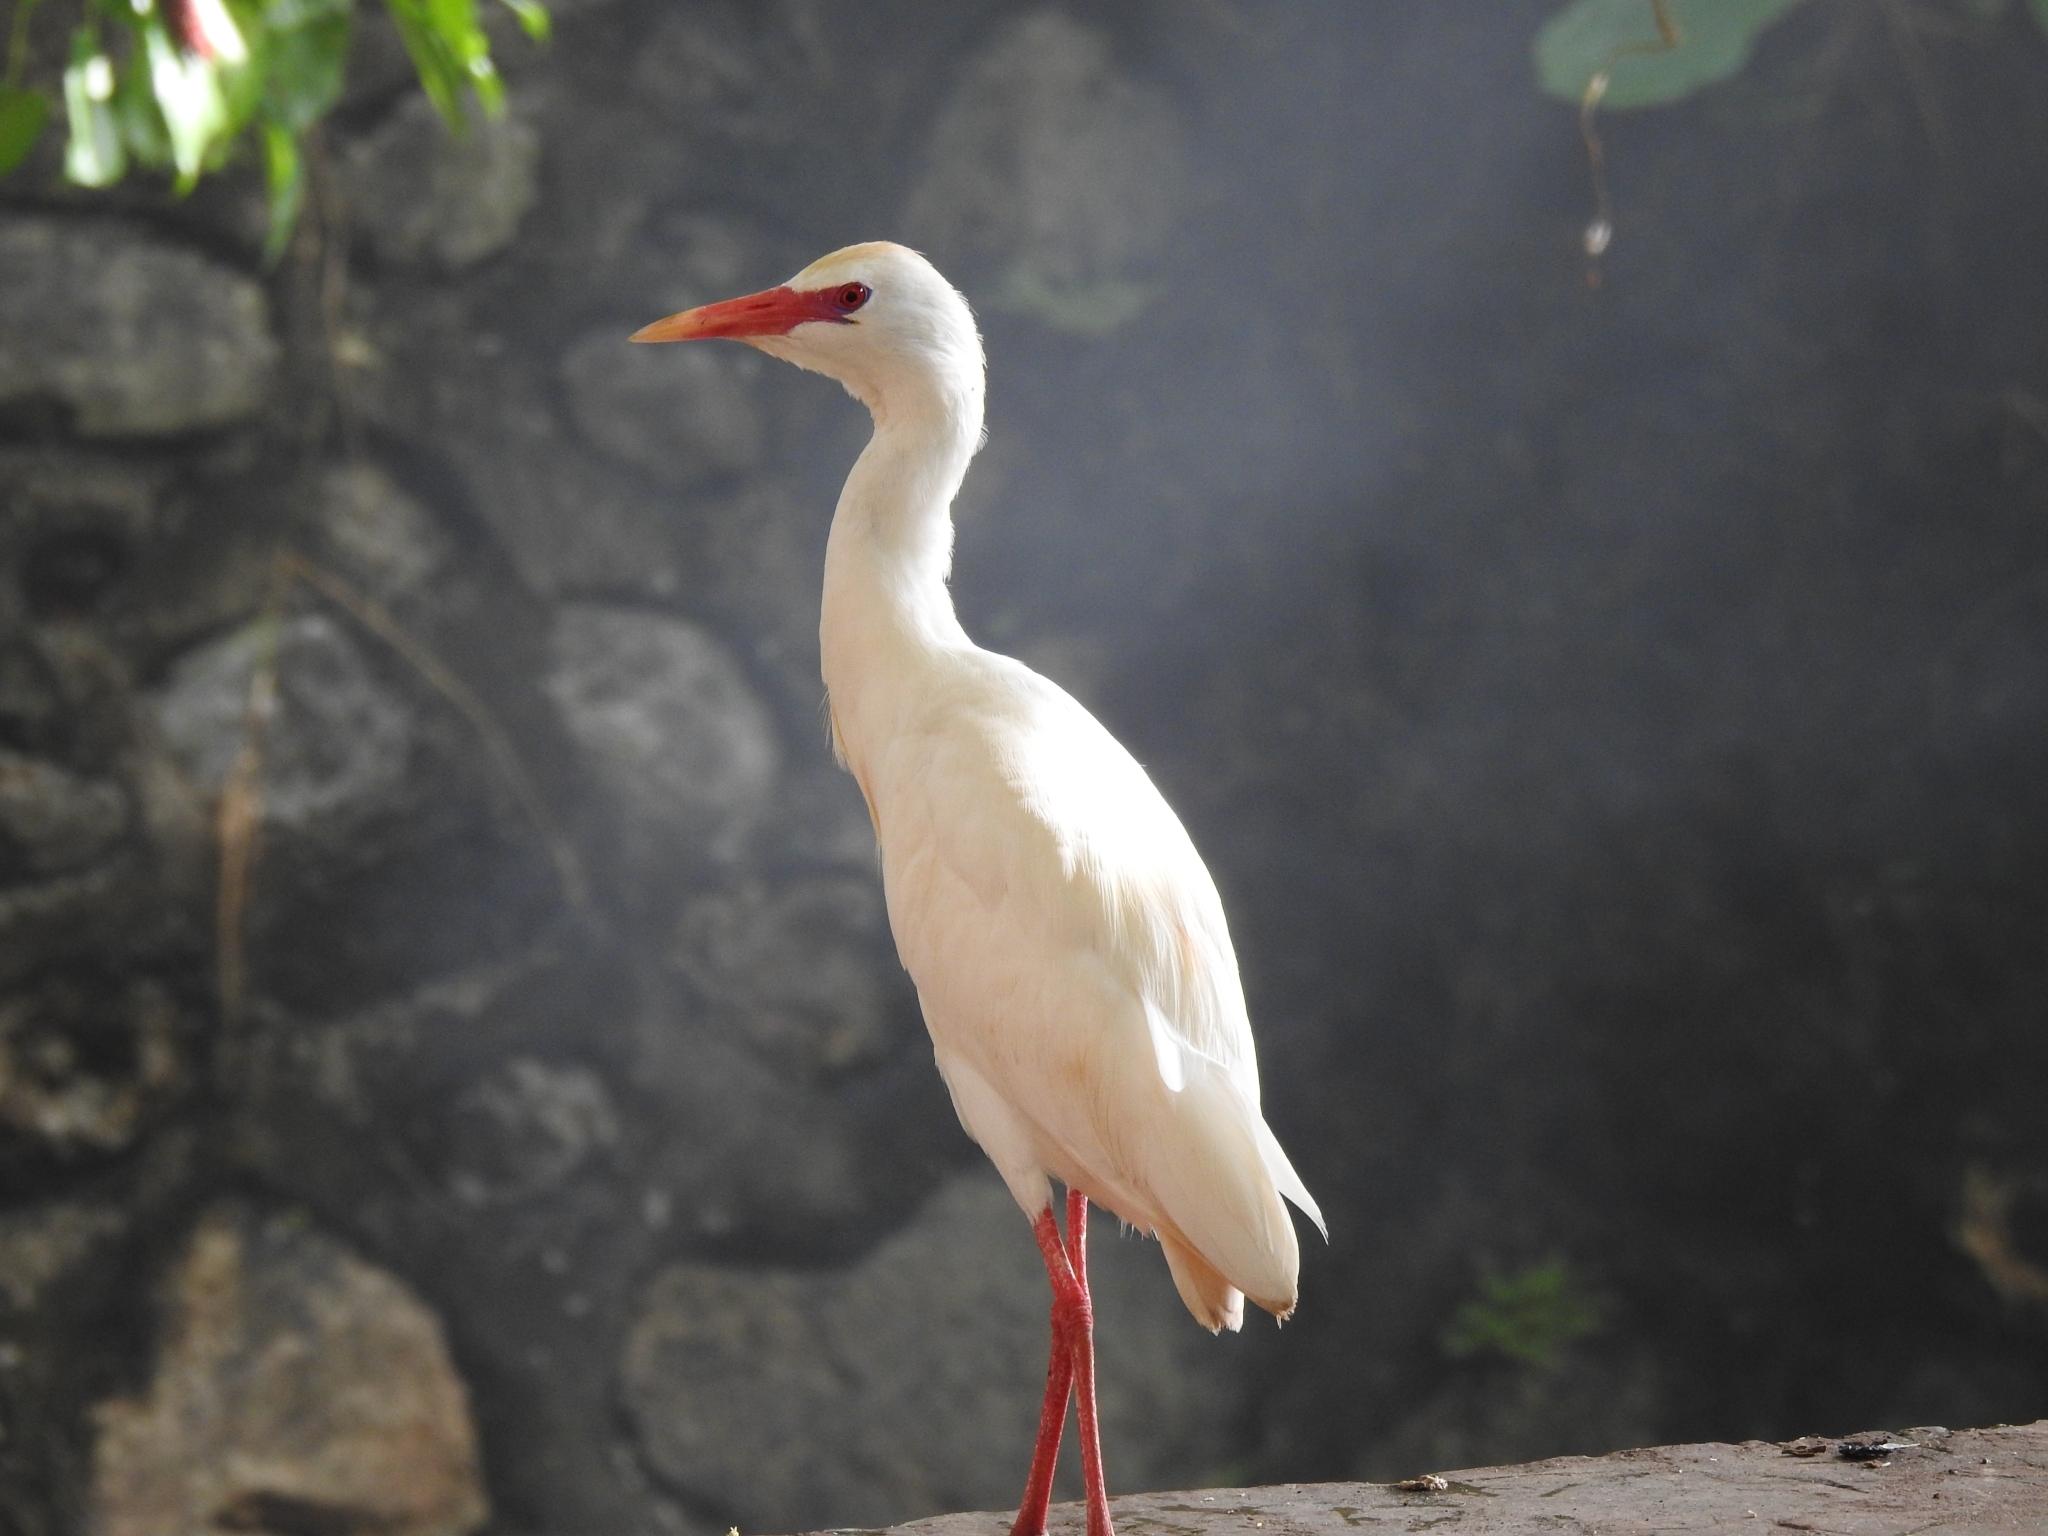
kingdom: Animalia
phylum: Chordata
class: Aves
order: Pelecaniformes
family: Ardeidae
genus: Bubulcus
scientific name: Bubulcus ibis
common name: Cattle egret
